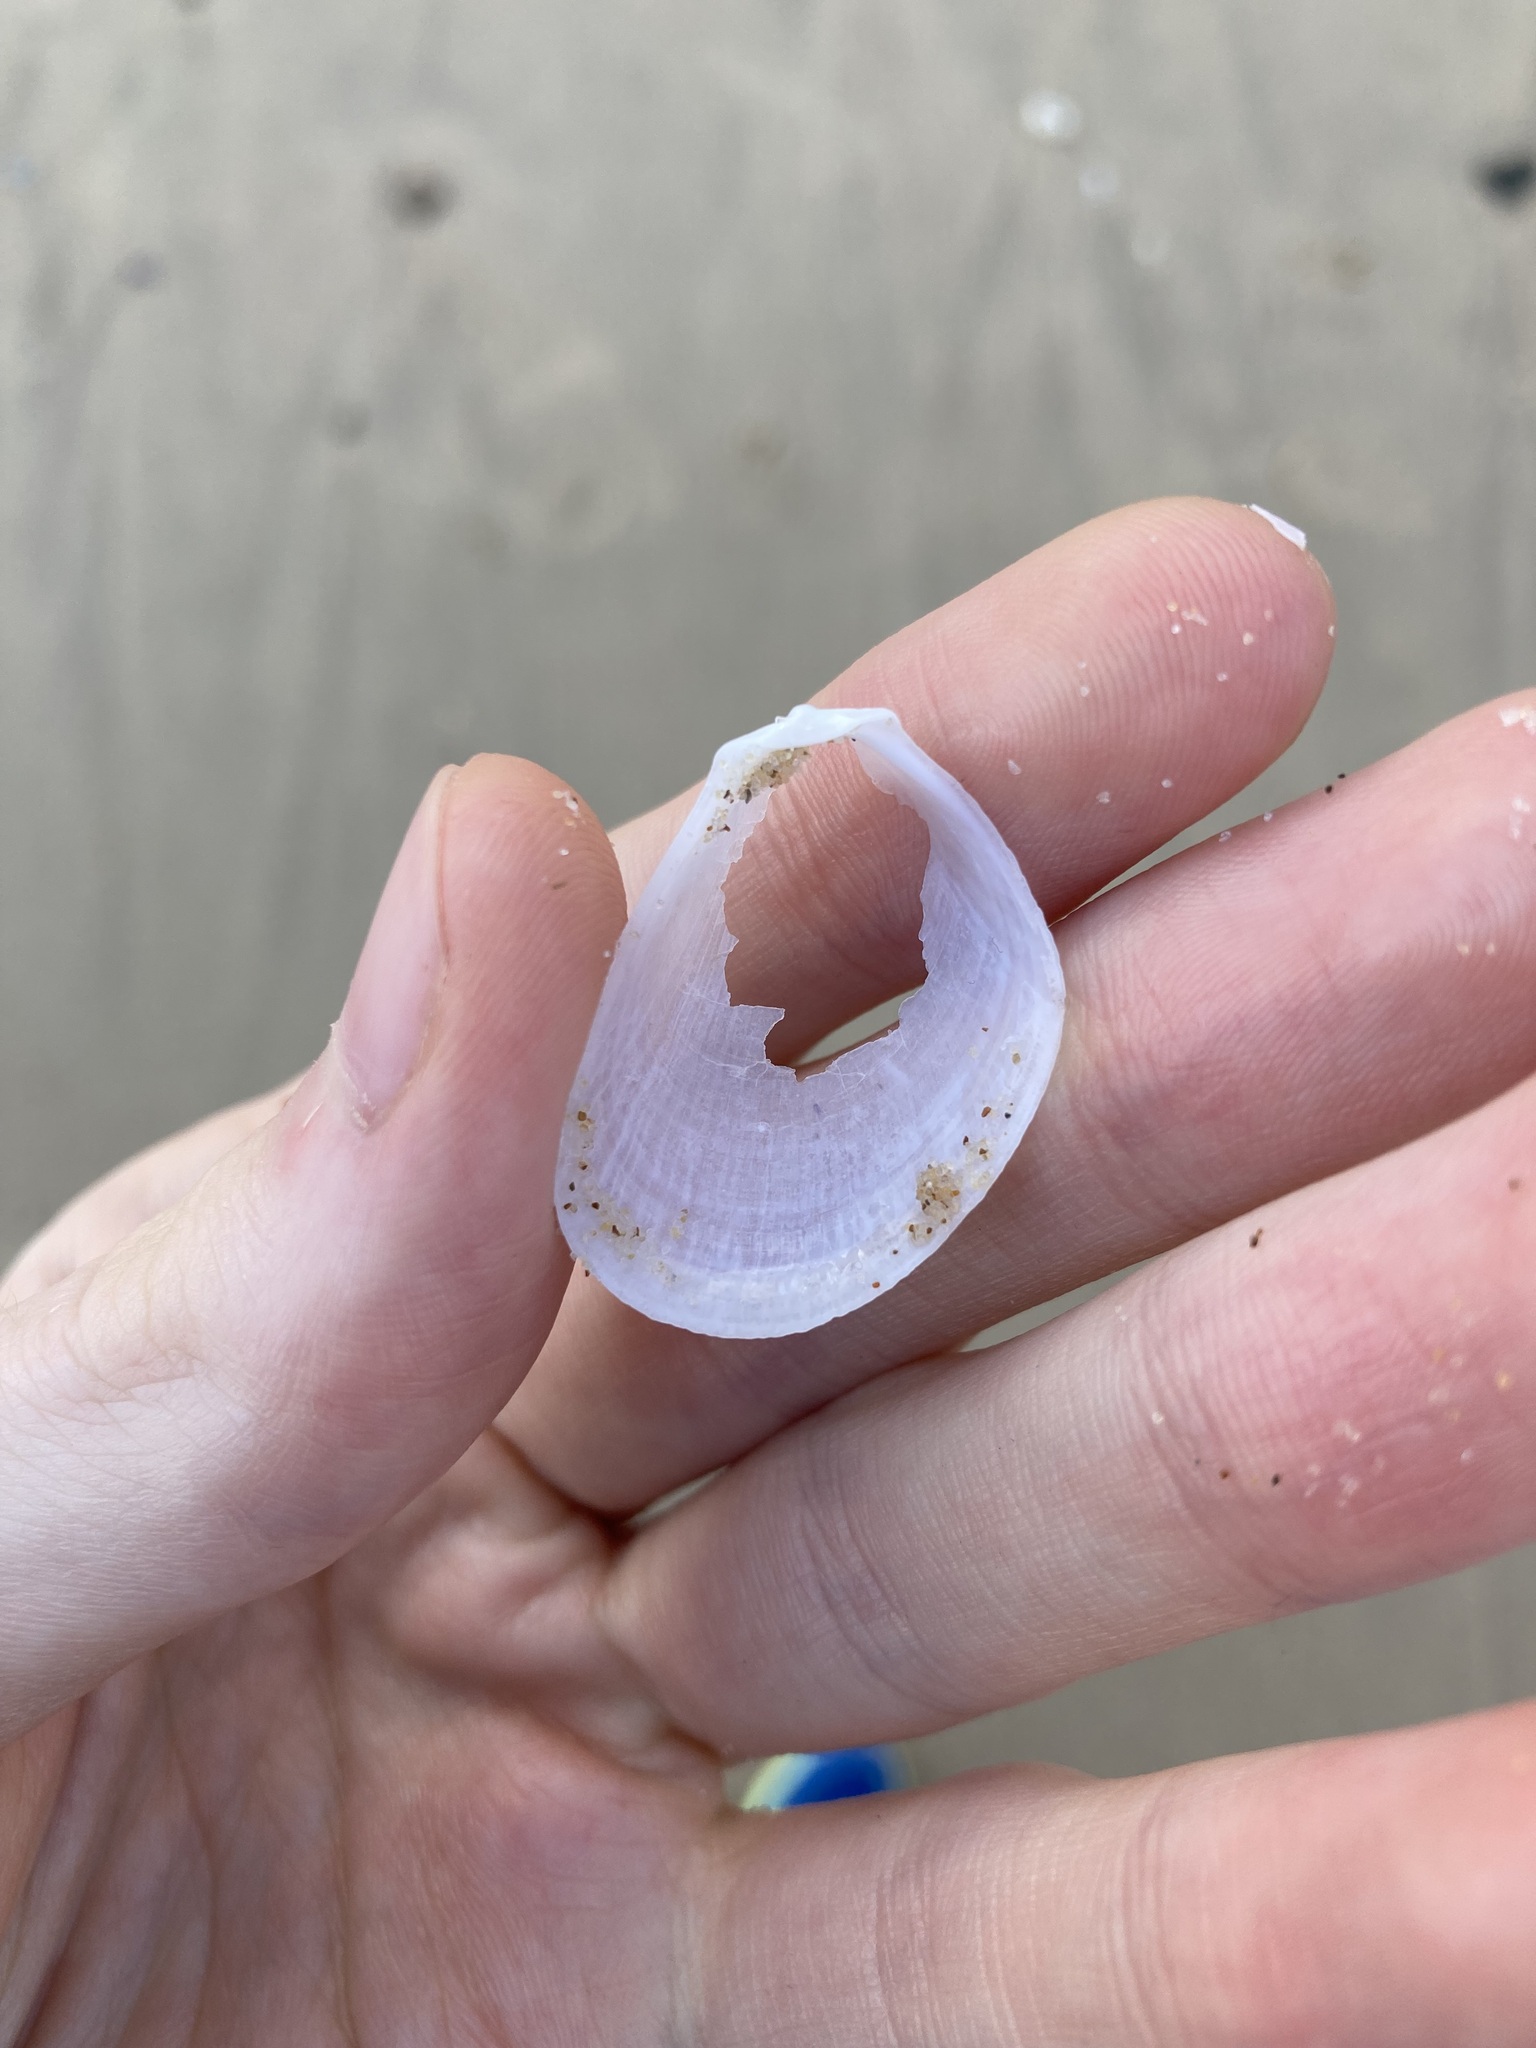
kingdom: Animalia
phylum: Mollusca
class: Bivalvia
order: Limida
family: Limidae
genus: Limaria
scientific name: Limaria orientalis
